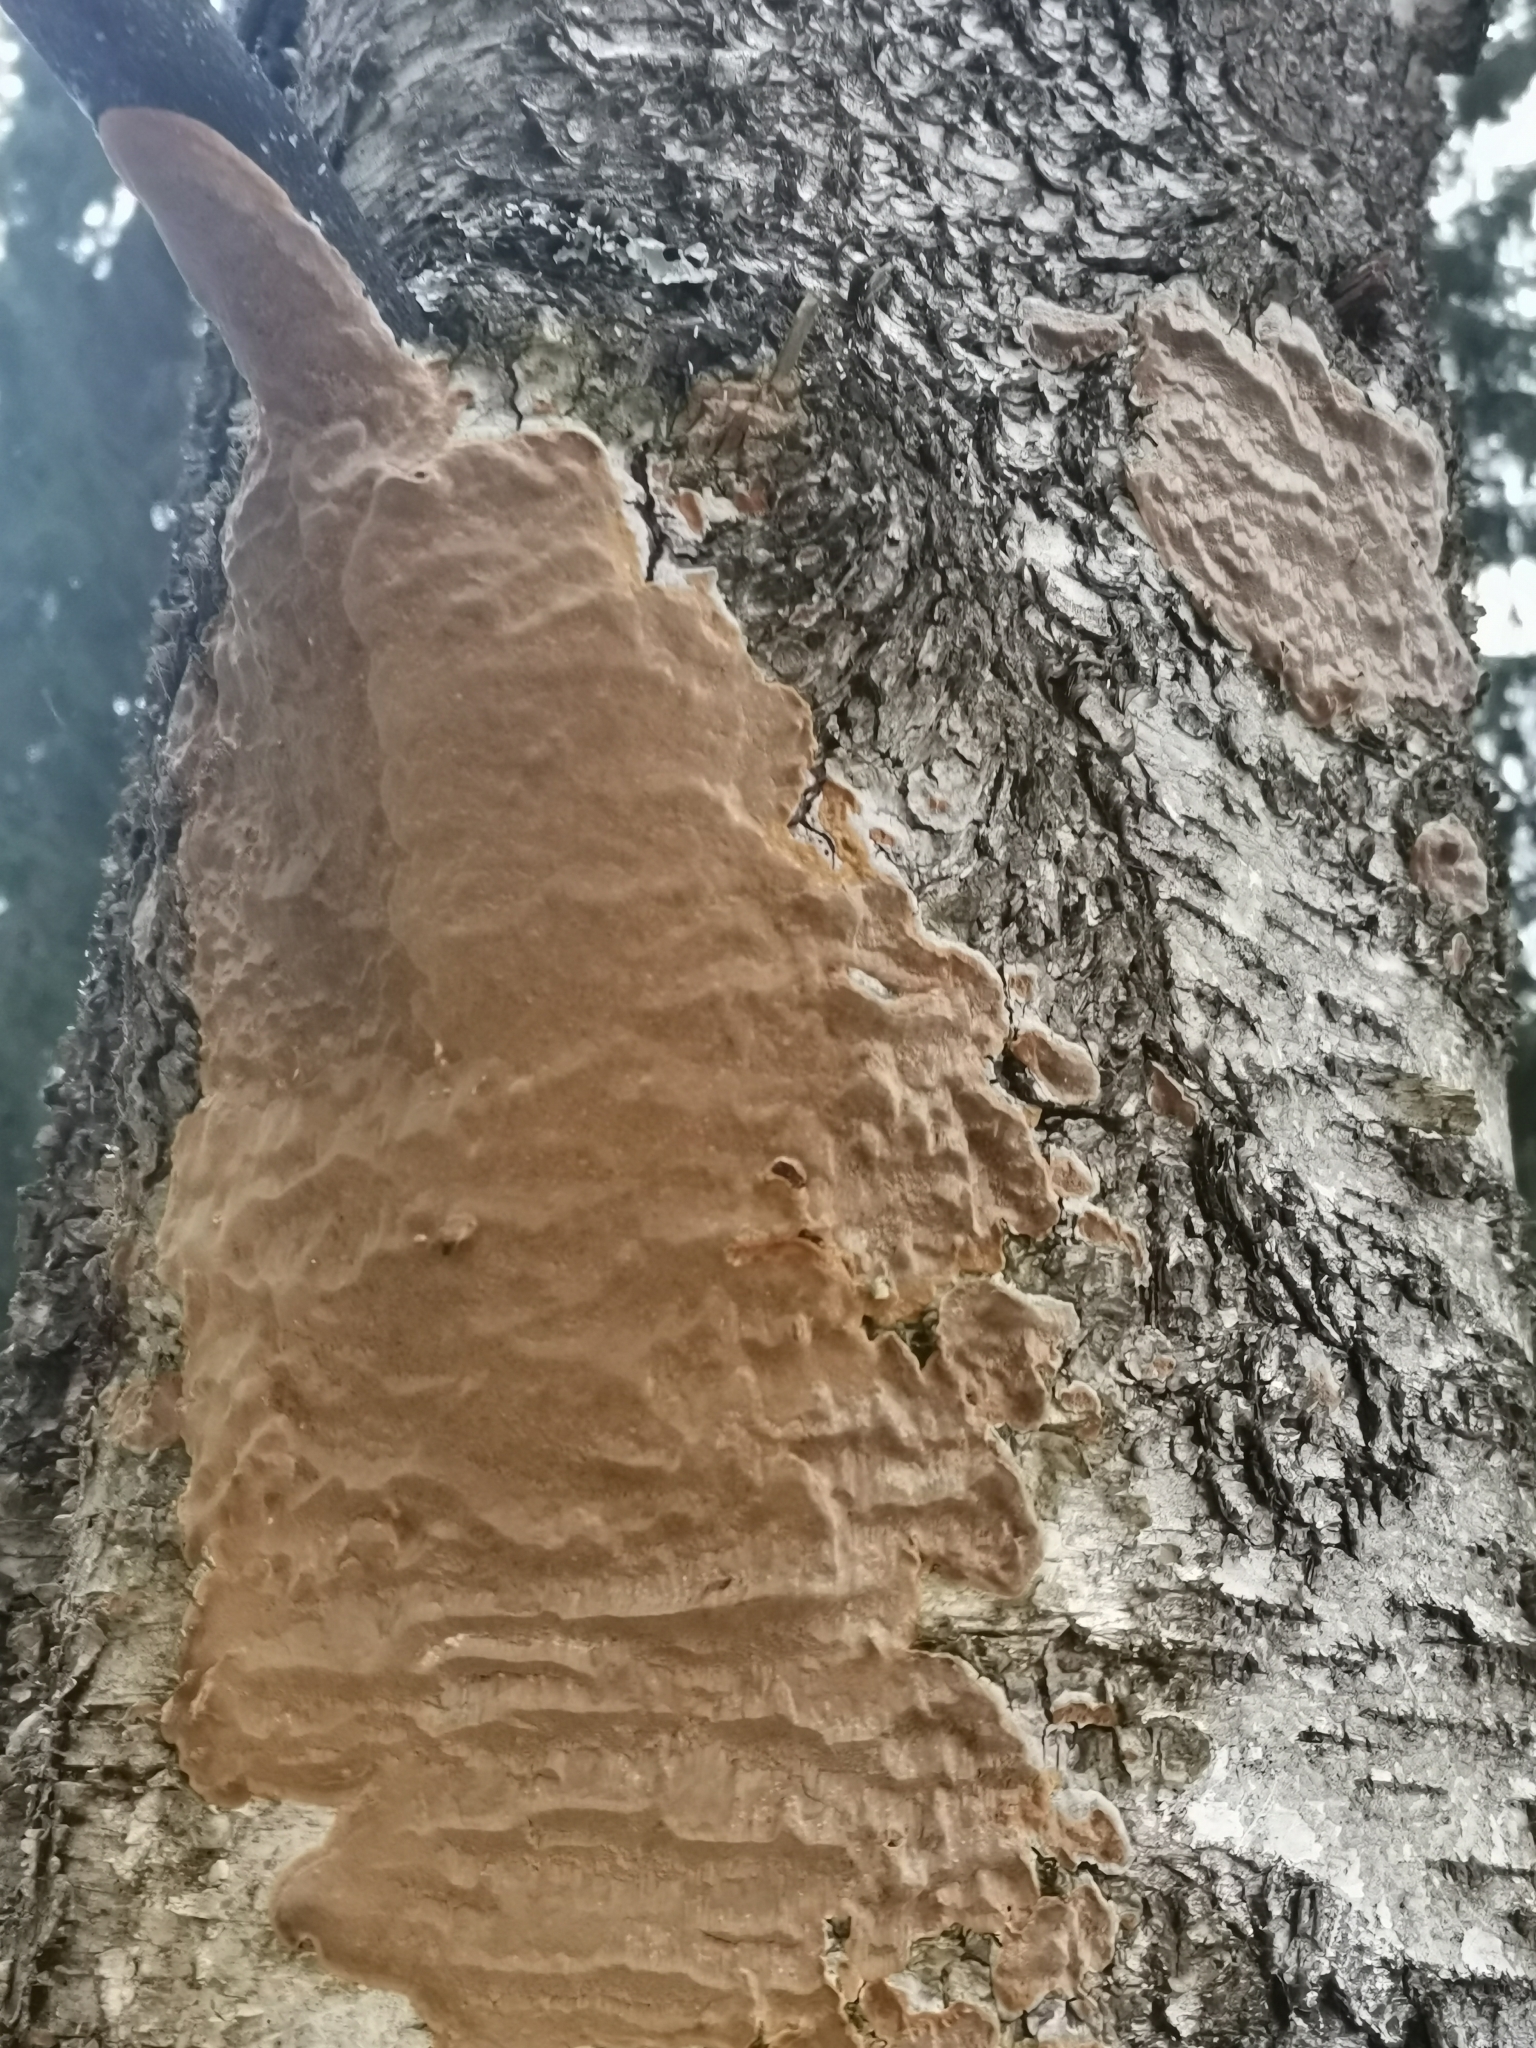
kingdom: Fungi
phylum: Basidiomycota
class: Agaricomycetes
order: Hymenochaetales
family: Hymenochaetaceae
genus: Phellinus
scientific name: Phellinus laevigatus
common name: Smooth bristle bracket
